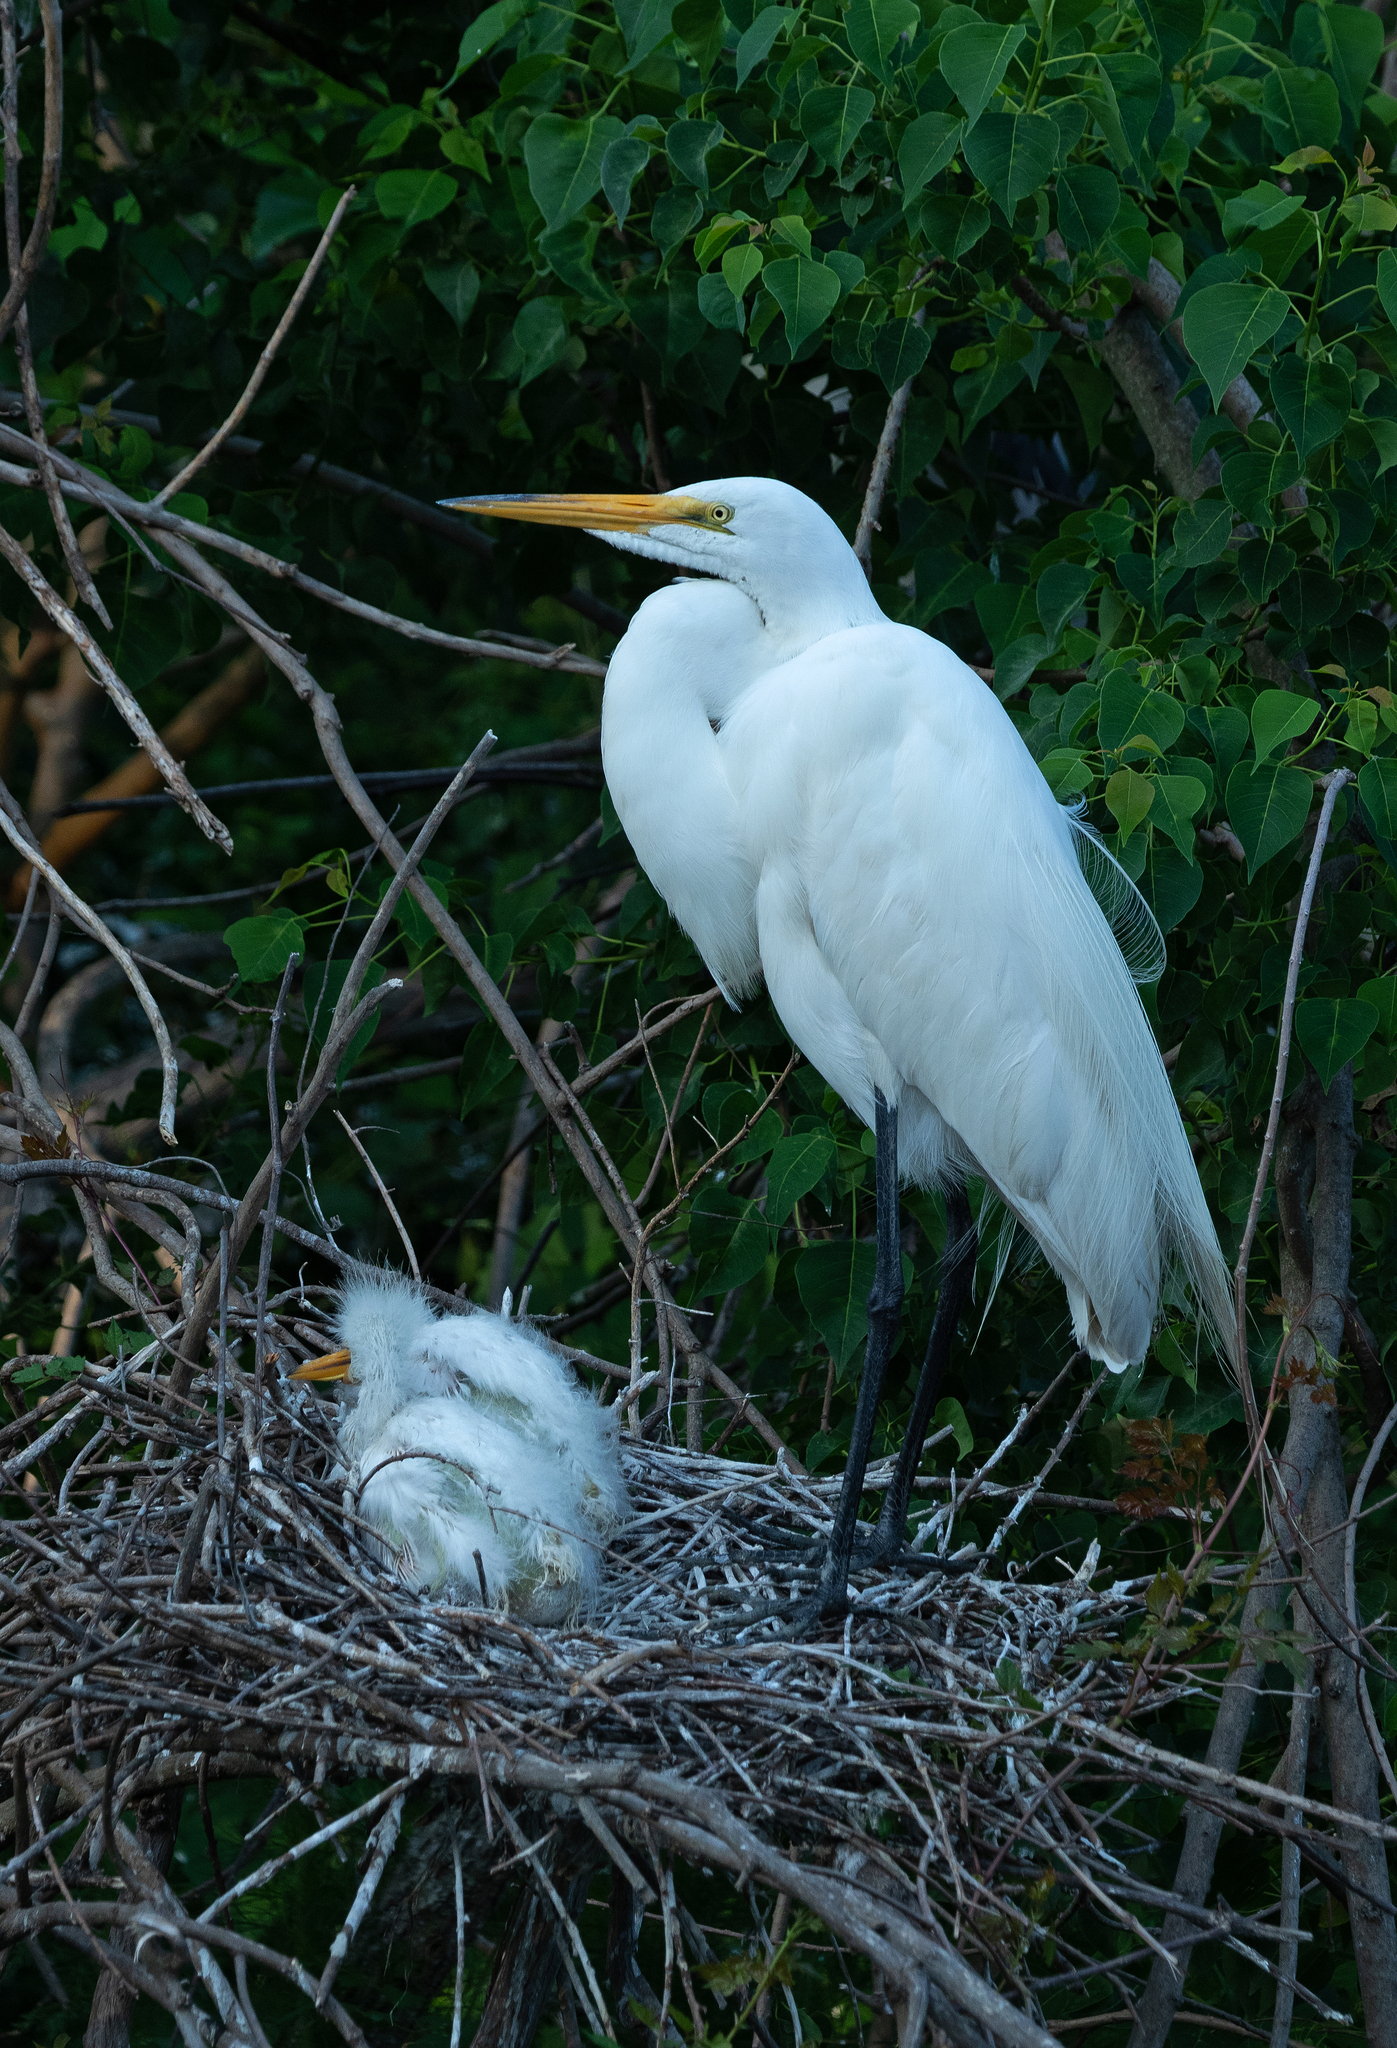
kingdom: Animalia
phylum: Chordata
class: Aves
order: Pelecaniformes
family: Ardeidae
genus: Ardea
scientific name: Ardea alba
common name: Great egret
